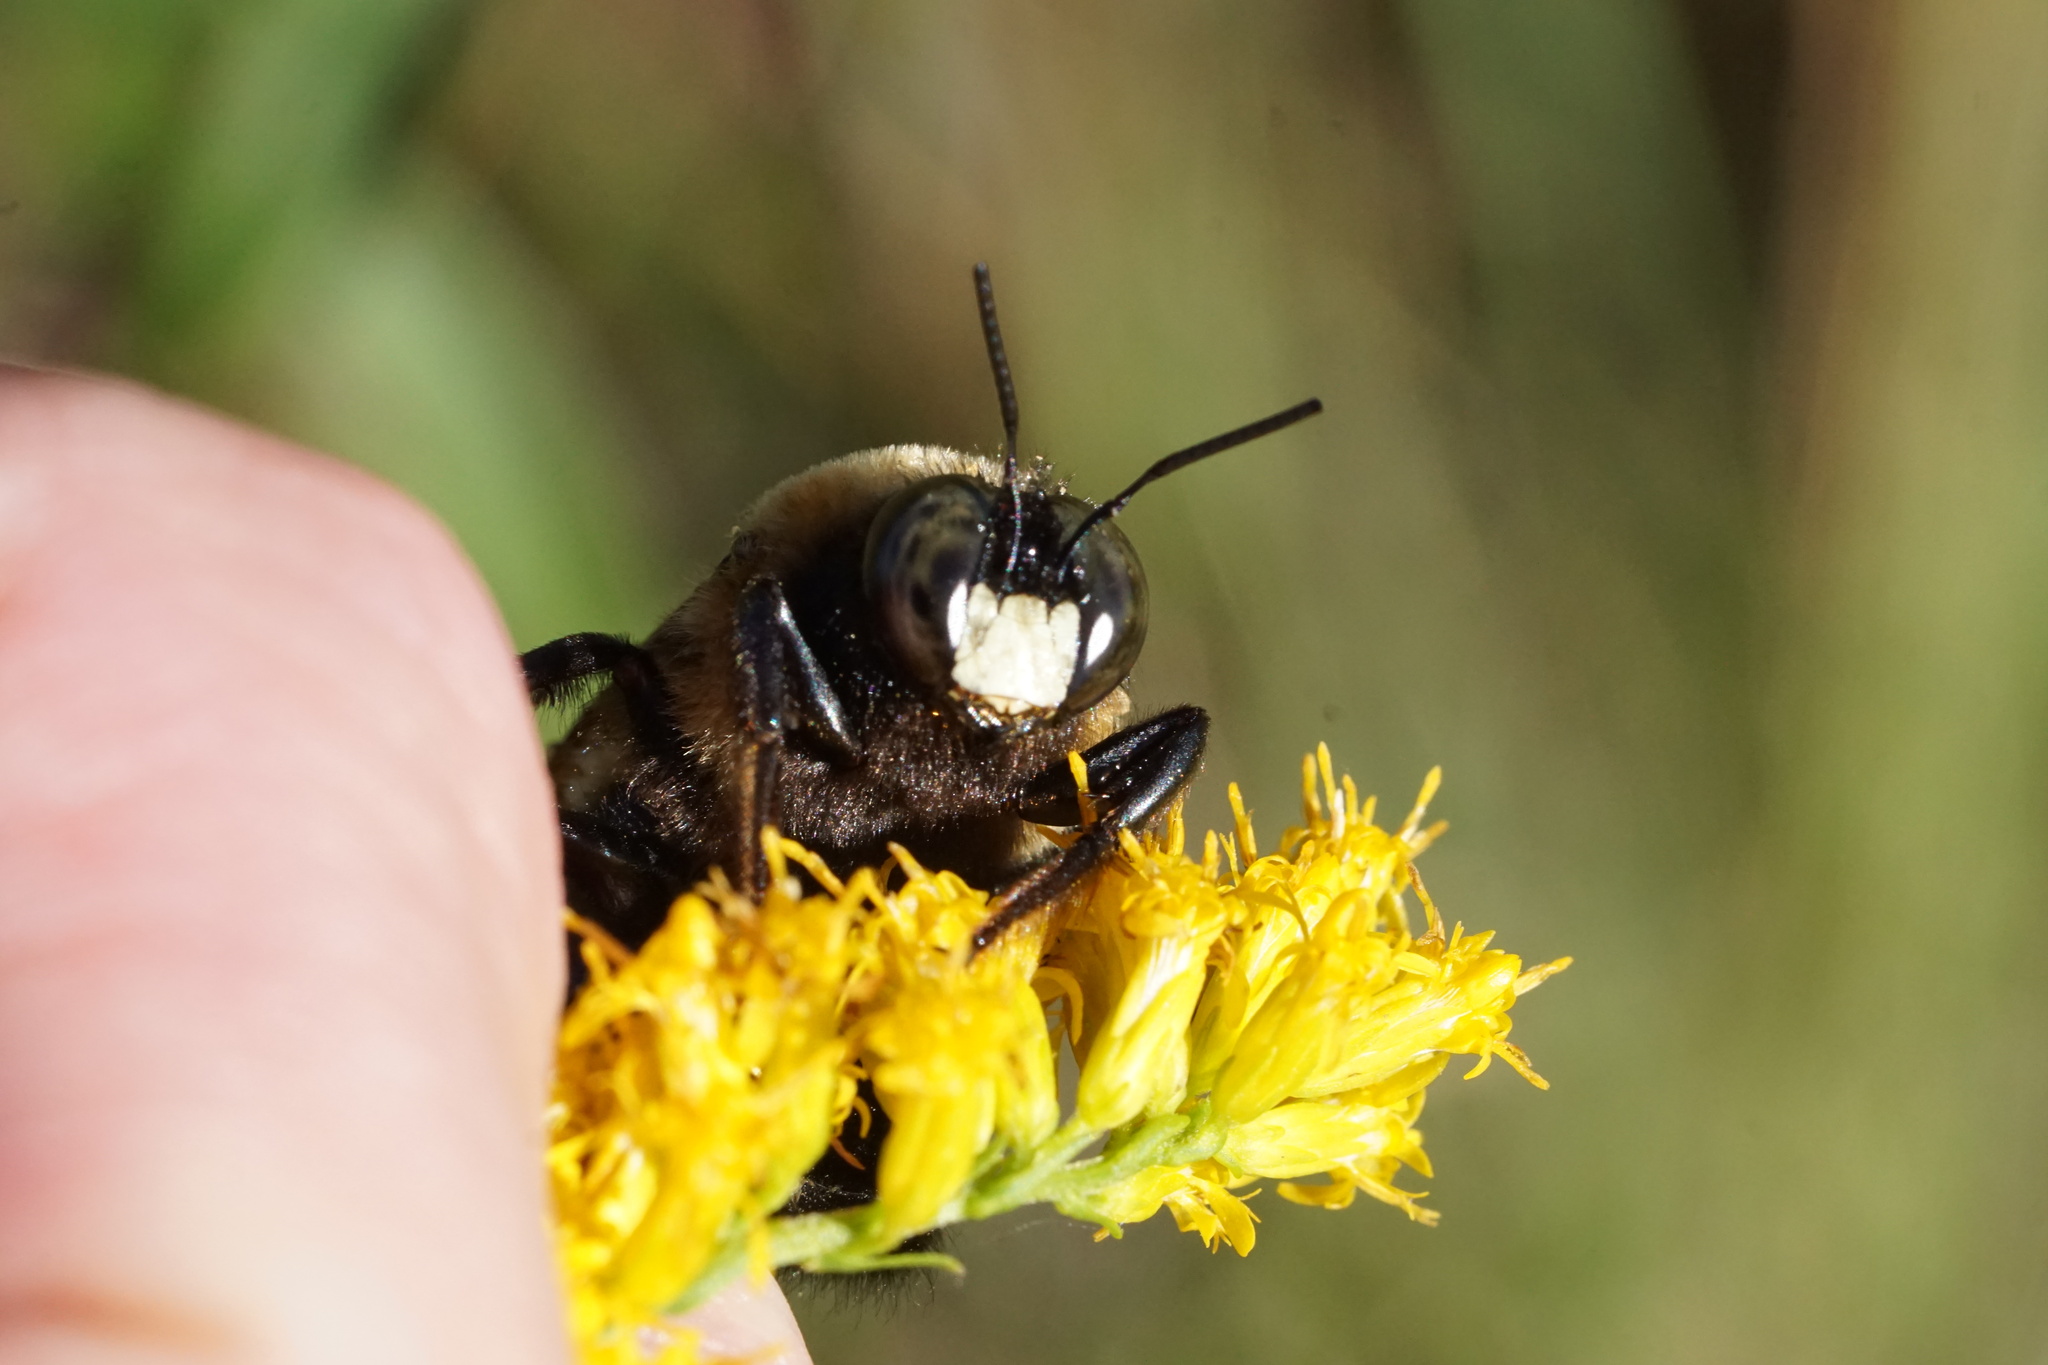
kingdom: Animalia
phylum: Arthropoda
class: Insecta
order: Hymenoptera
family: Apidae
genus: Xylocopa
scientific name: Xylocopa virginica
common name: Carpenter bee
